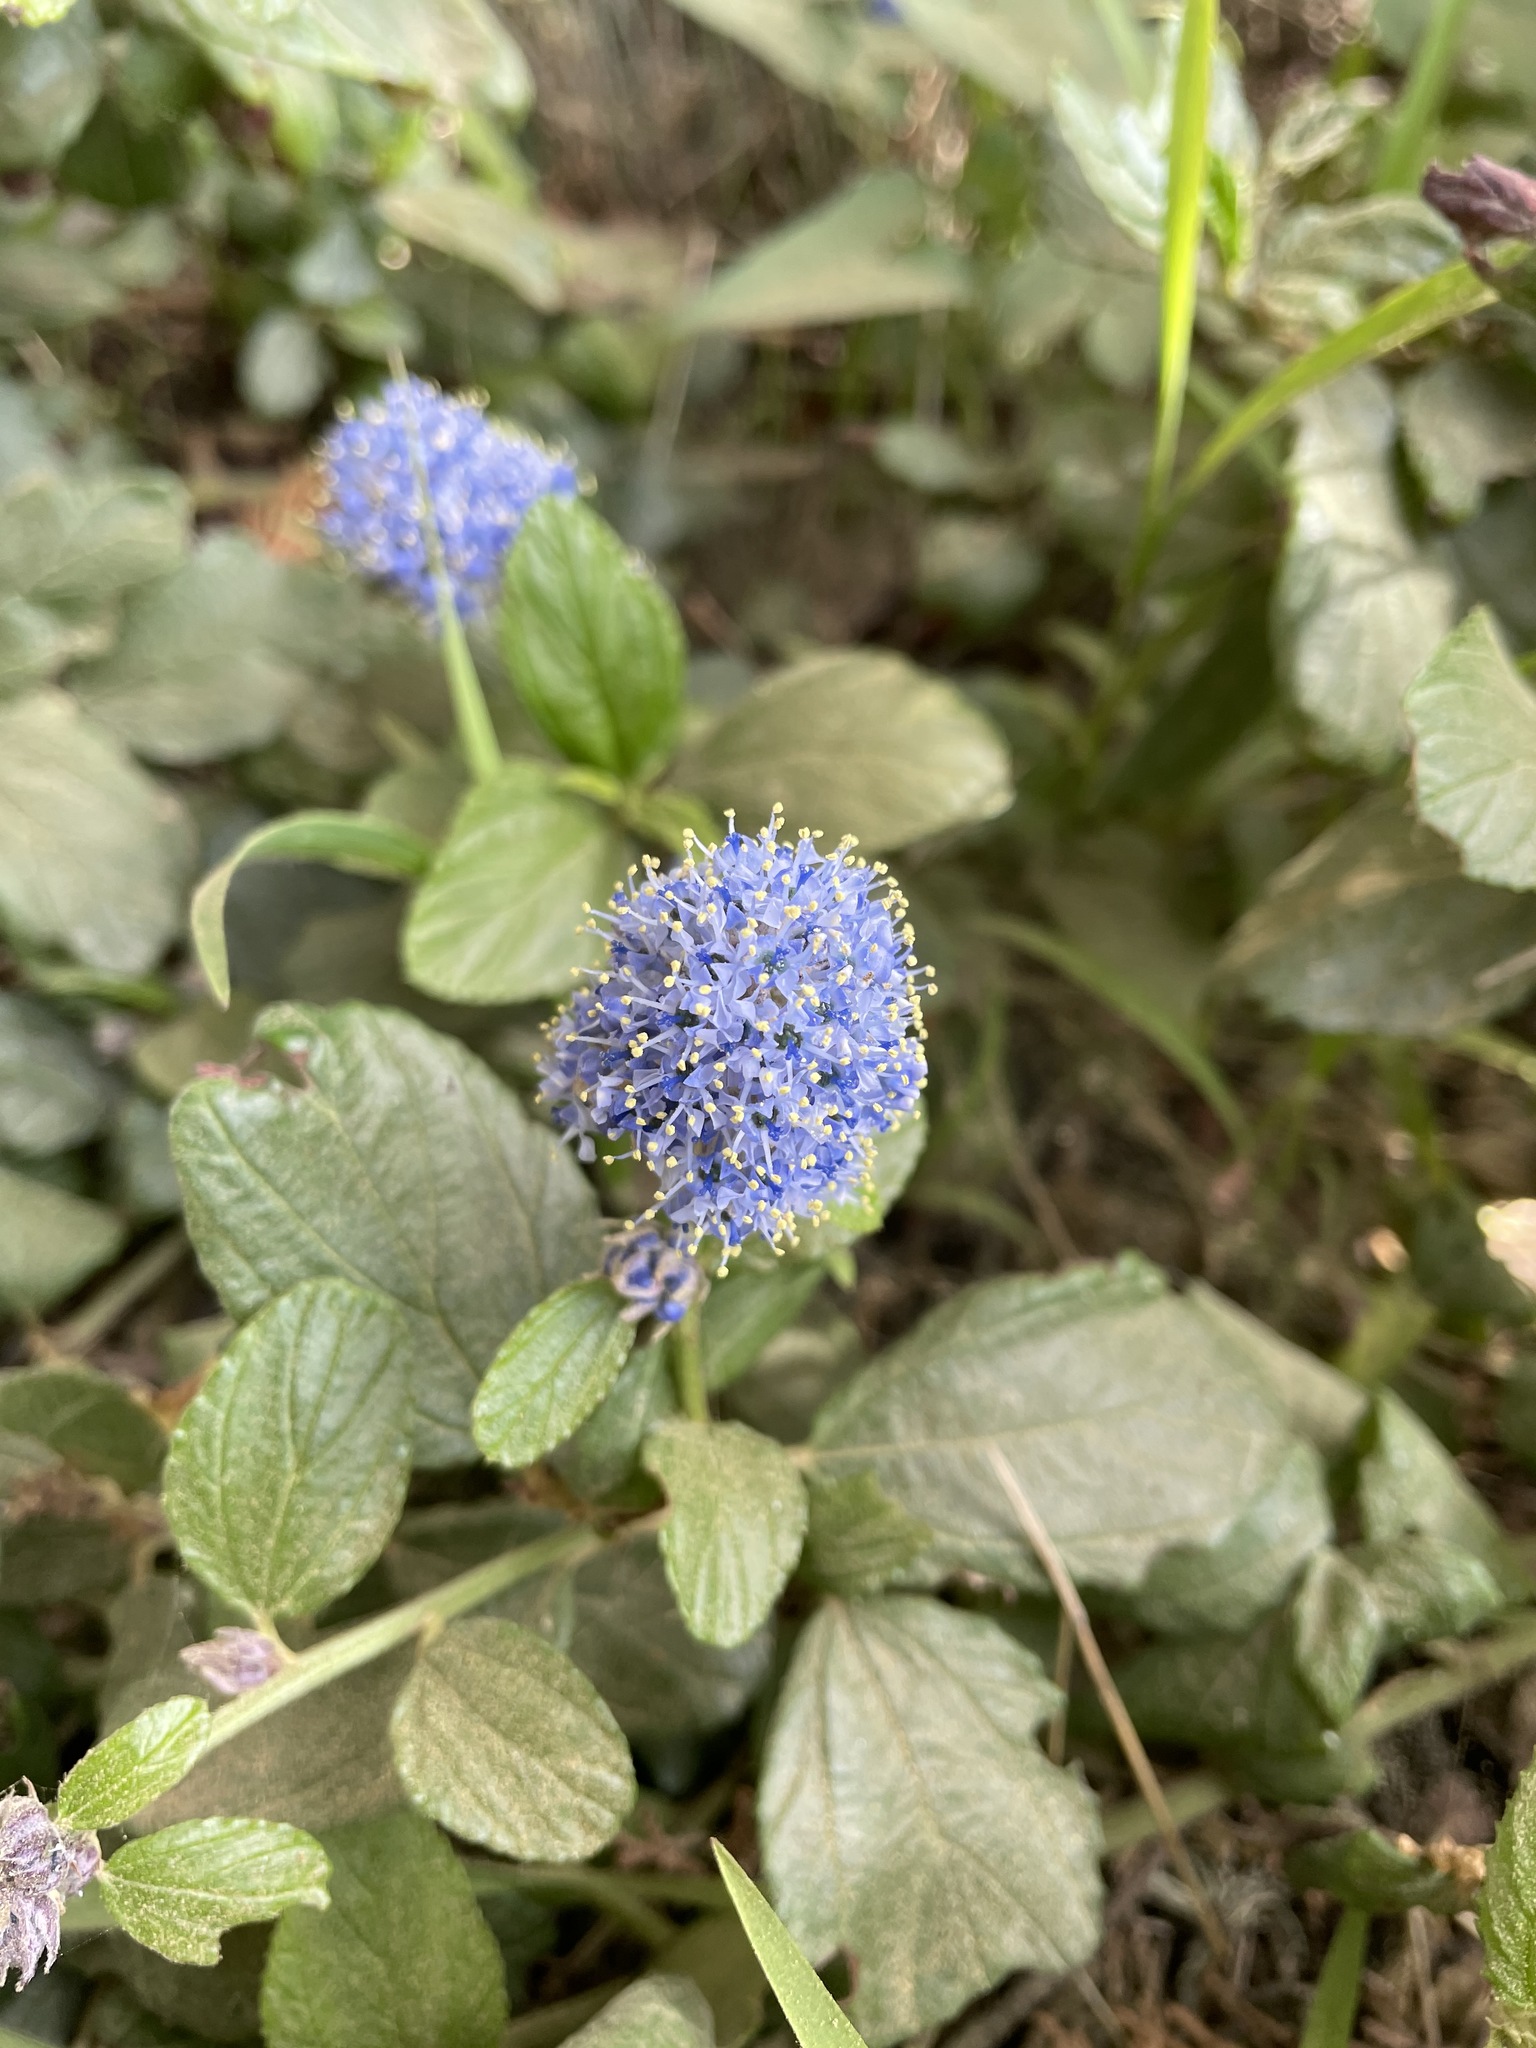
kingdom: Plantae
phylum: Tracheophyta
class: Magnoliopsida
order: Rosales
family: Rhamnaceae
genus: Ceanothus
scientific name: Ceanothus griseus
